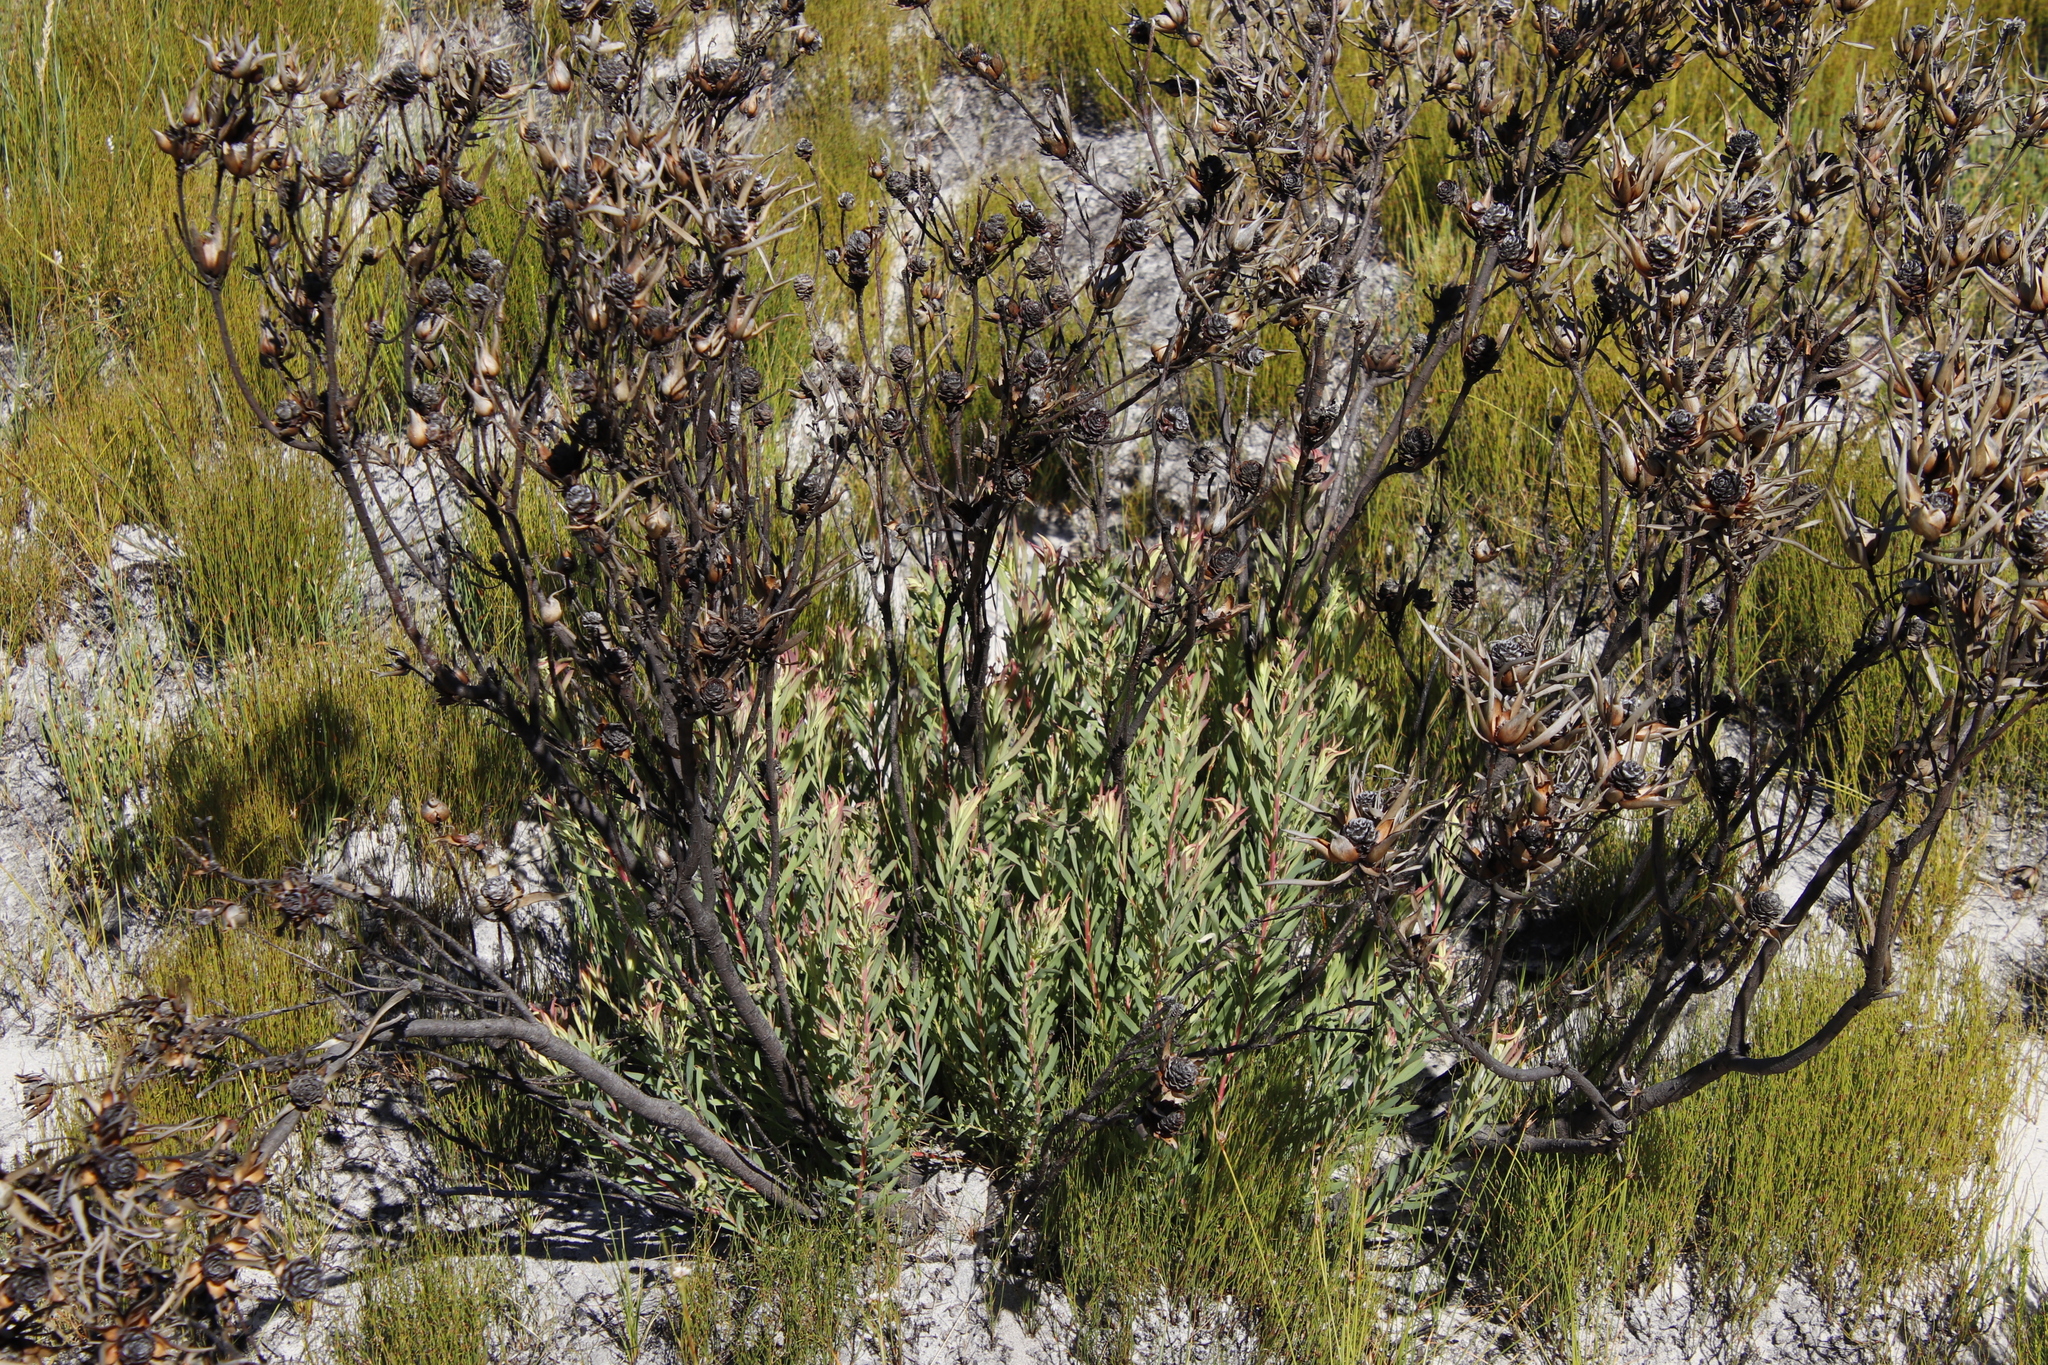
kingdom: Plantae
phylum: Tracheophyta
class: Magnoliopsida
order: Proteales
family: Proteaceae
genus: Leucadendron
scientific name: Leucadendron salignum
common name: Common sunshine conebush
